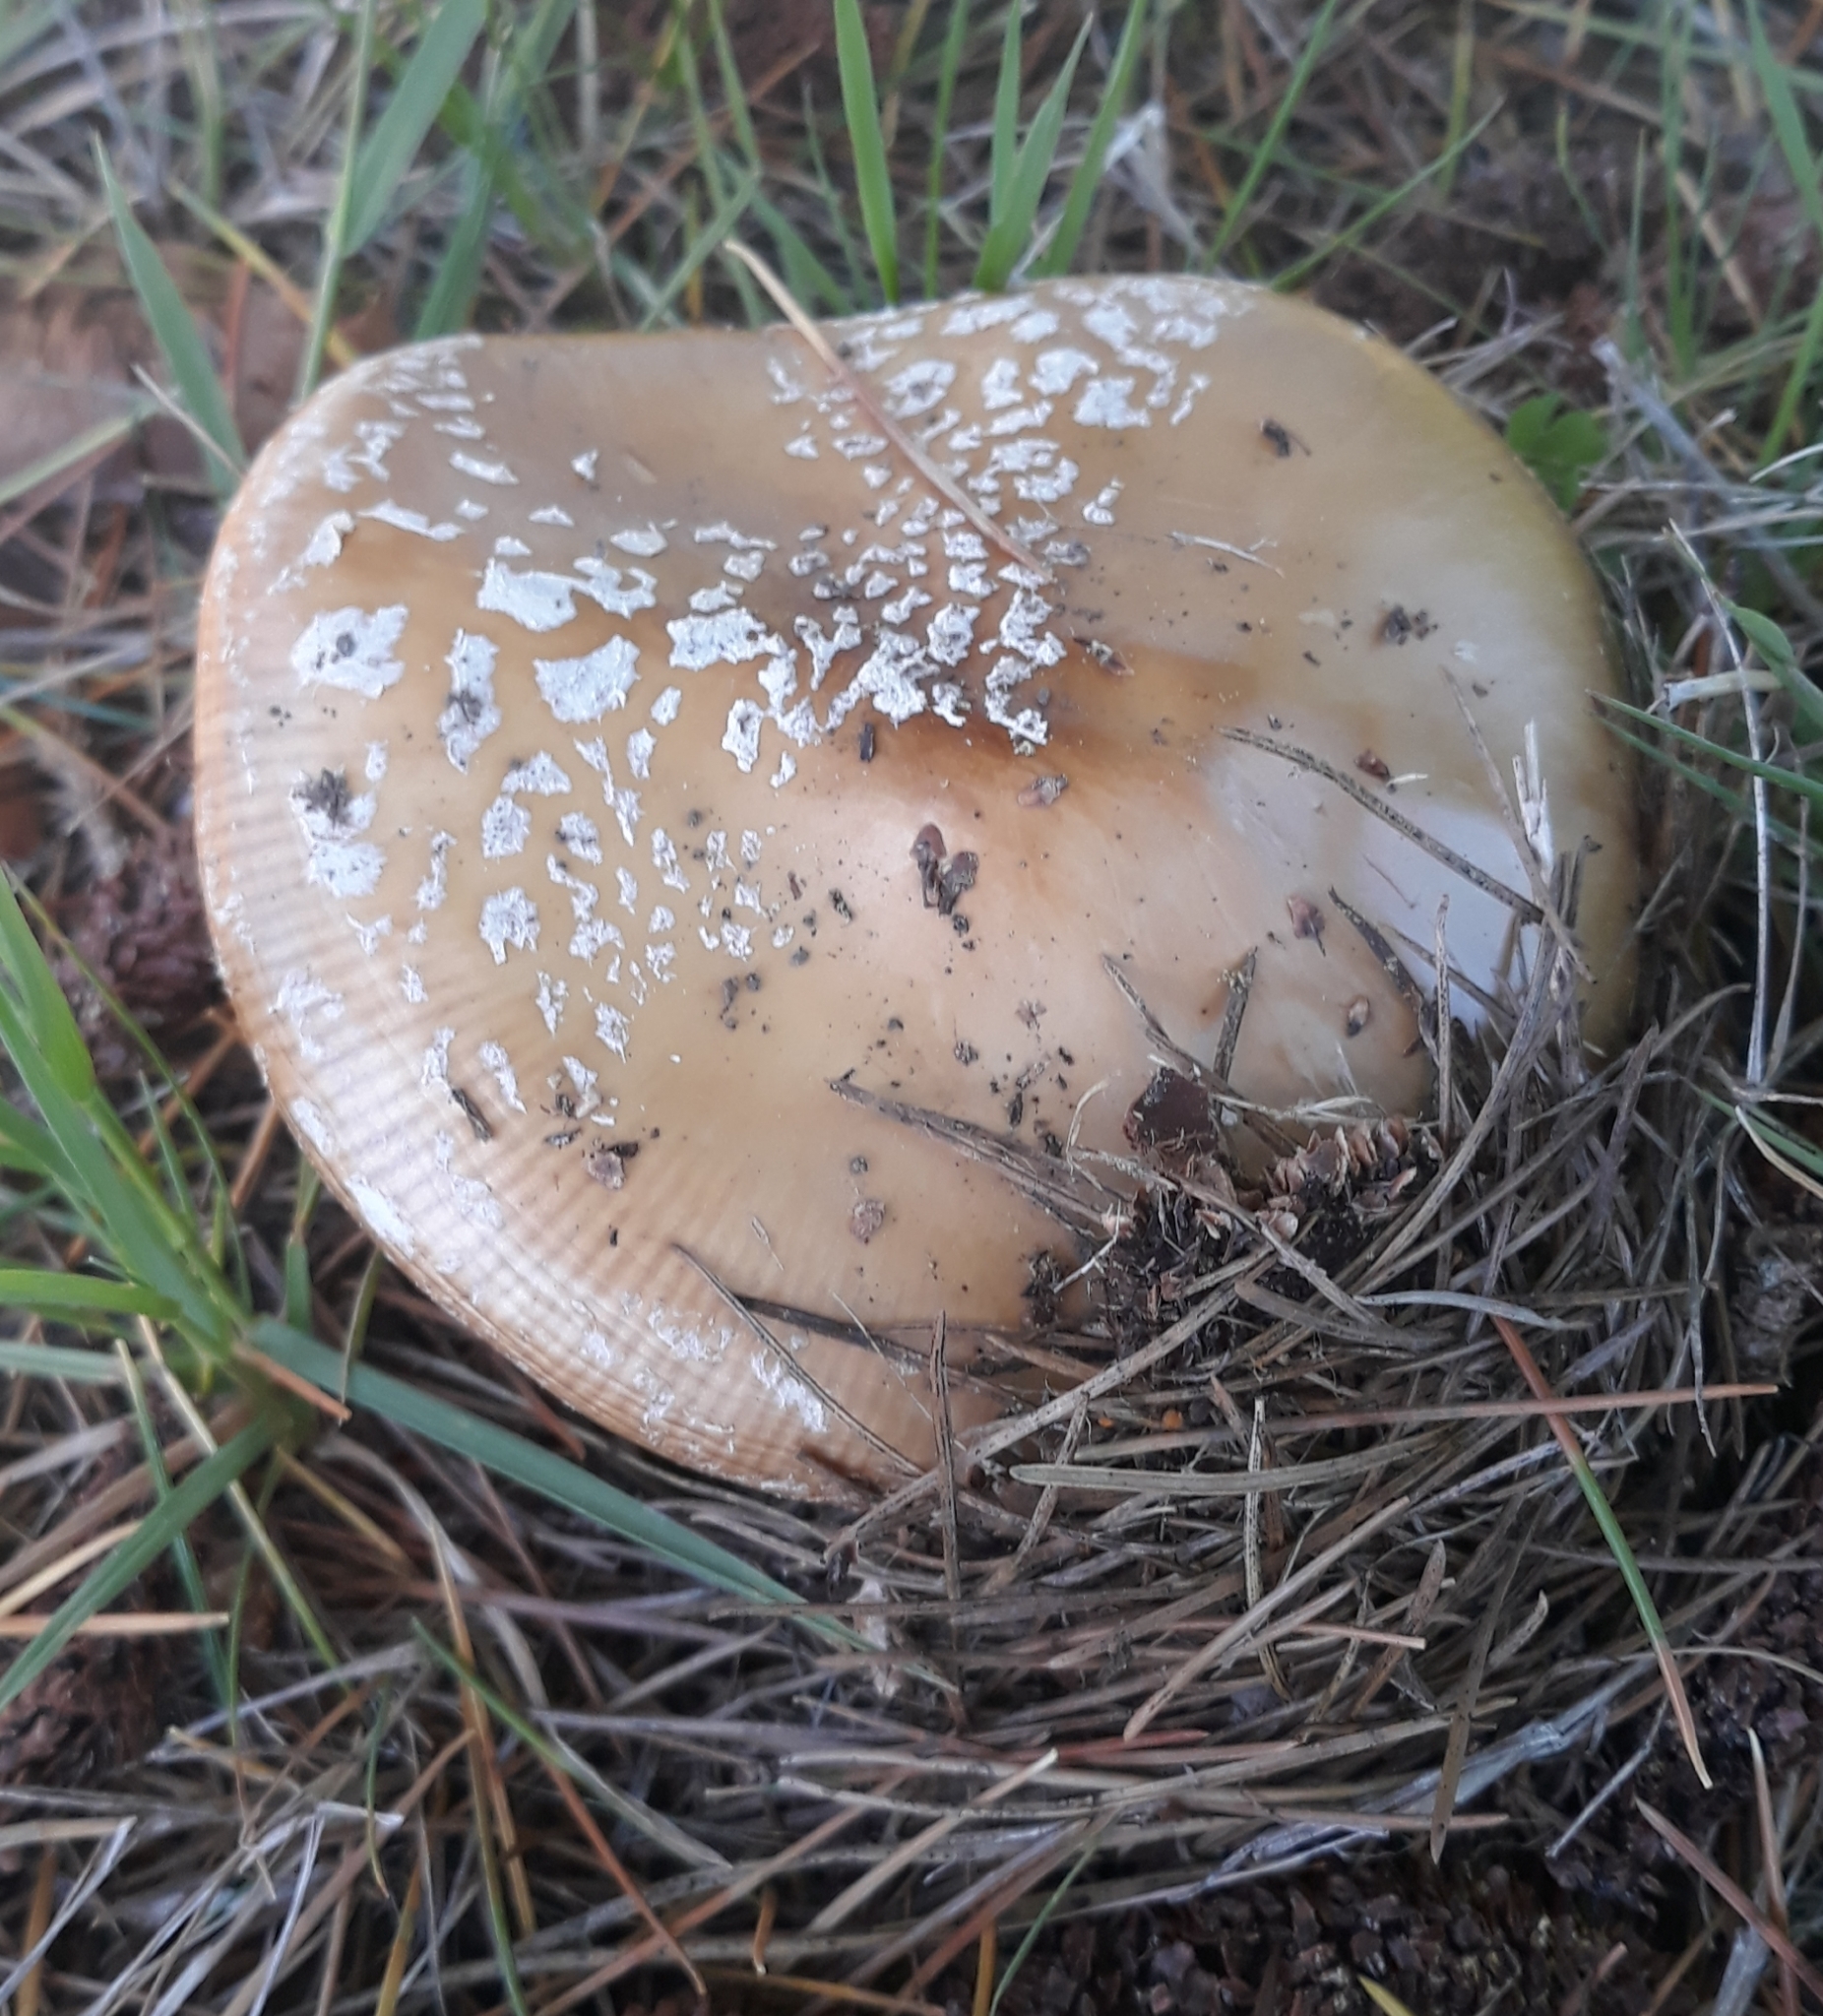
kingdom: Fungi
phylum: Basidiomycota
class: Agaricomycetes
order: Agaricales
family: Amanitaceae
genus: Amanita
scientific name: Amanita pantherinoides
